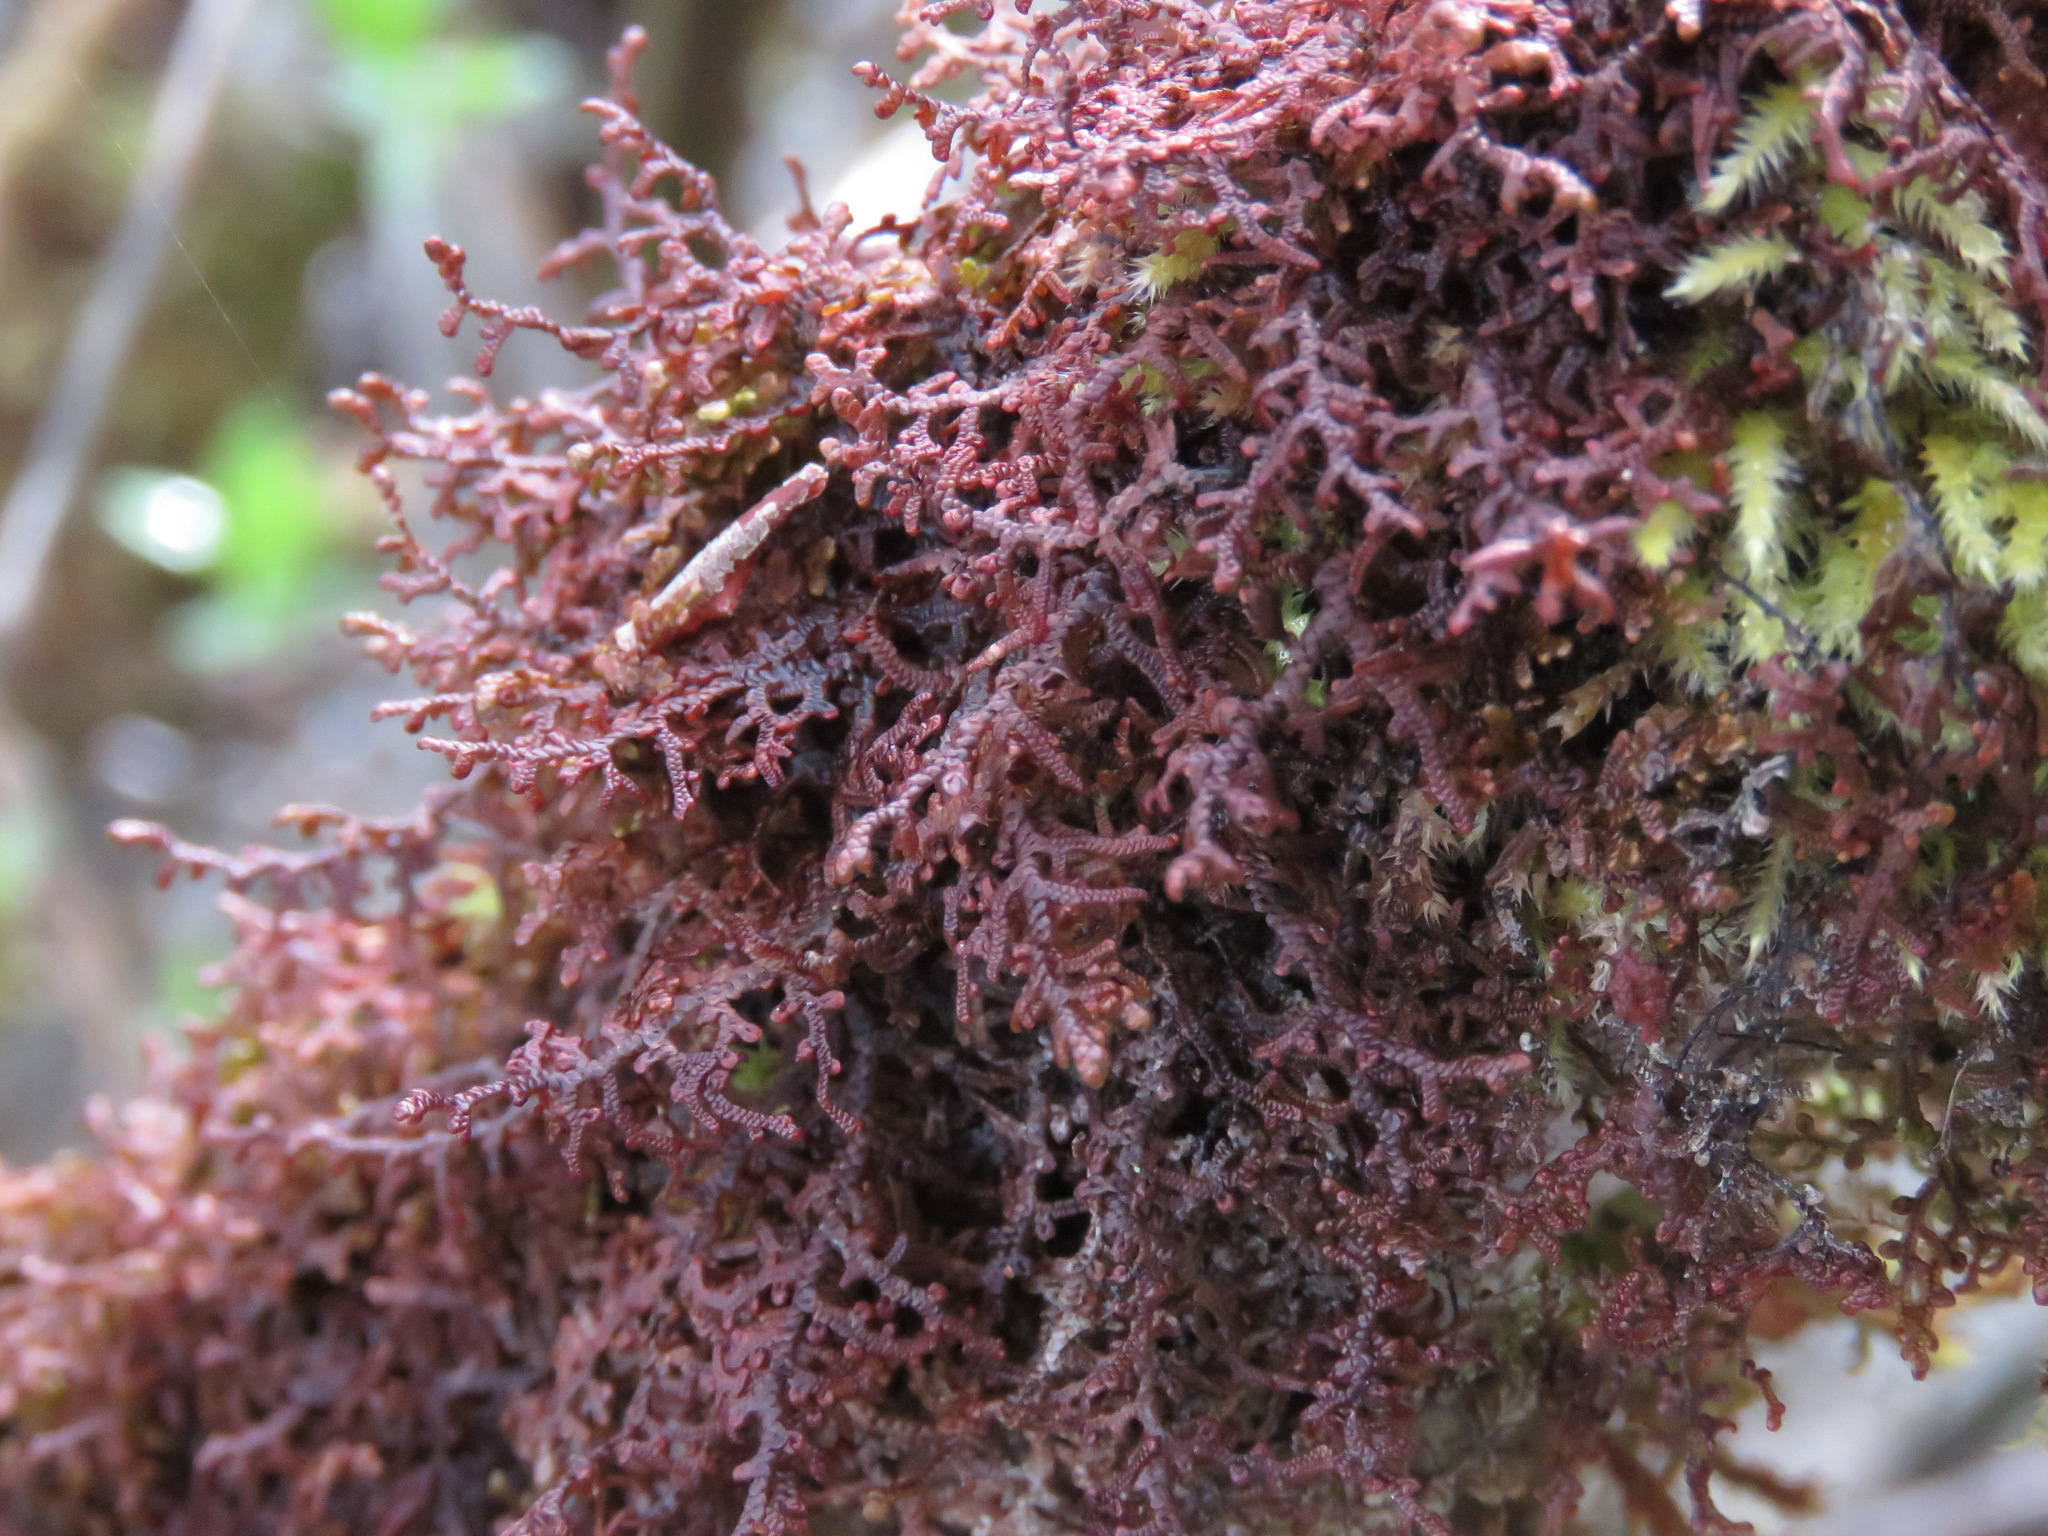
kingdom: Plantae
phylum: Marchantiophyta
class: Jungermanniopsida
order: Porellales
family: Frullaniaceae
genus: Frullania
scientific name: Frullania nisquallensis
